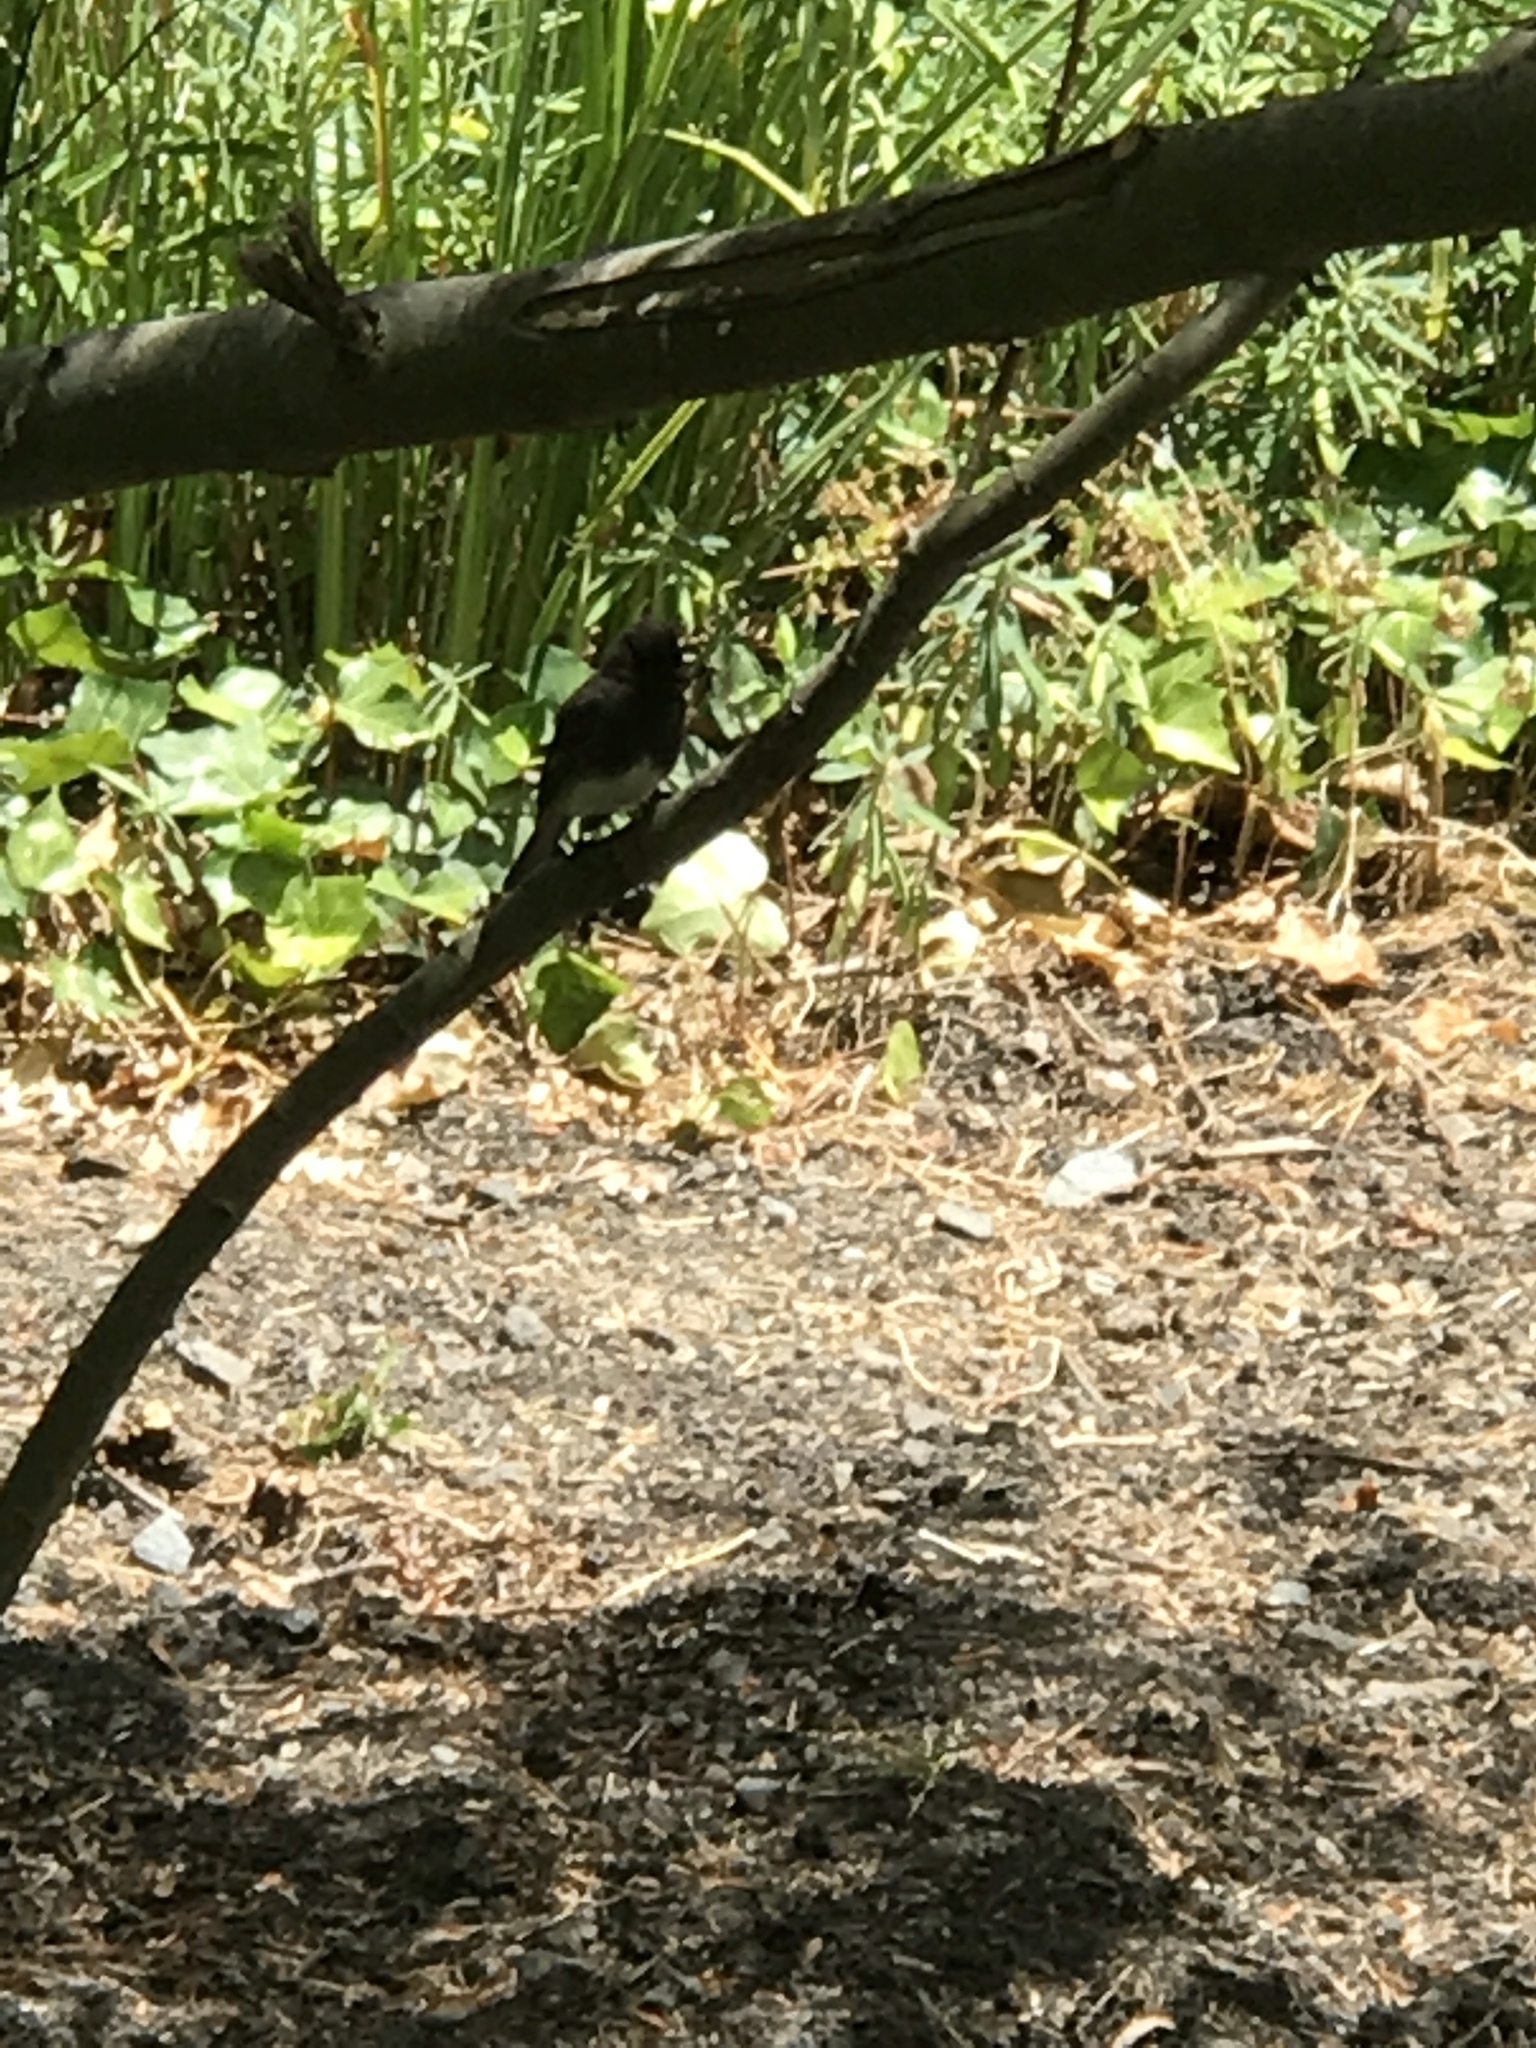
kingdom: Animalia
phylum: Chordata
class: Aves
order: Passeriformes
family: Tyrannidae
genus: Sayornis
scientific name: Sayornis nigricans
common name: Black phoebe
